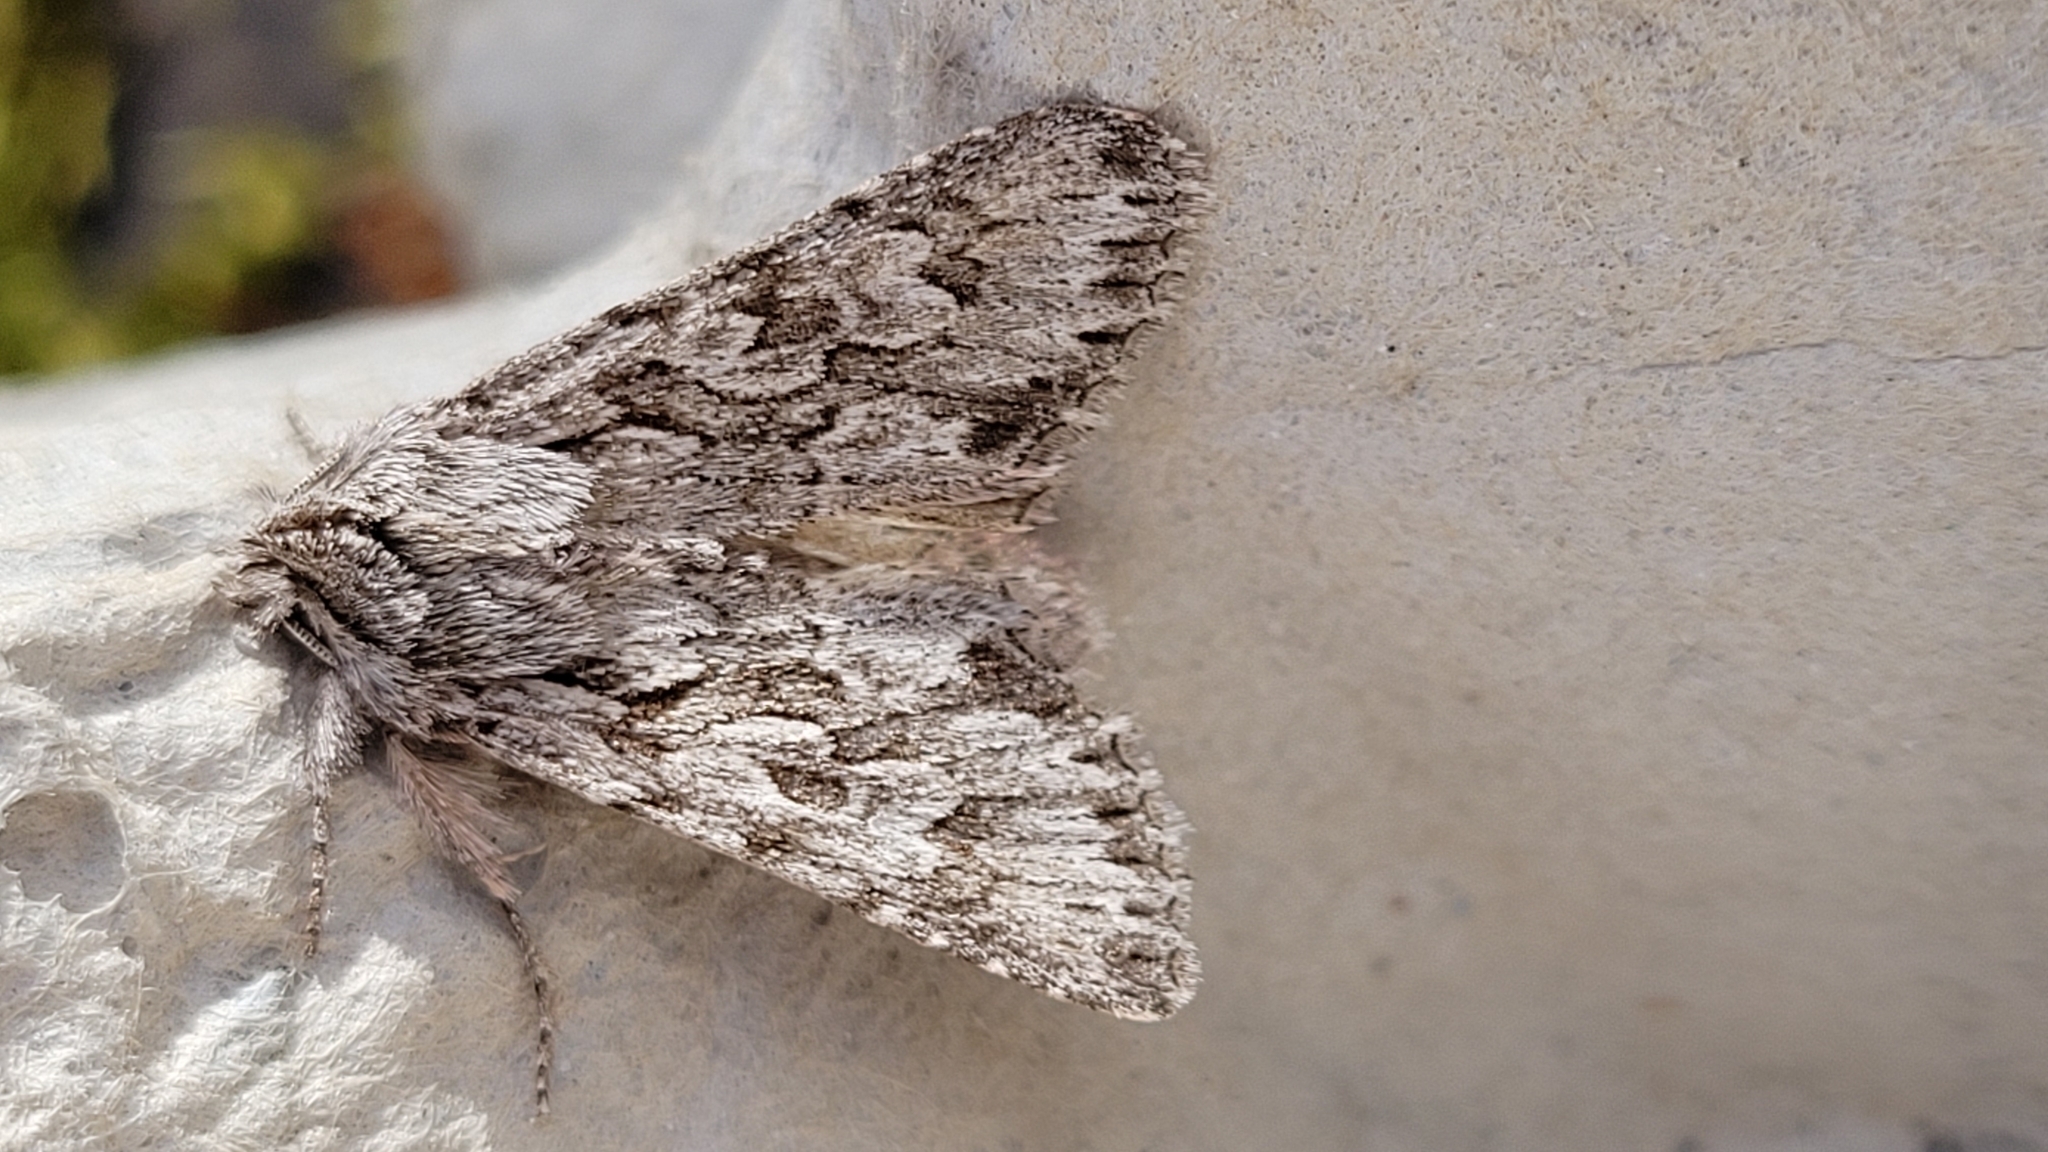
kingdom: Animalia
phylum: Arthropoda
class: Insecta
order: Lepidoptera
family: Noctuidae
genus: Xylocampa
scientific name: Xylocampa areola
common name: Early grey
